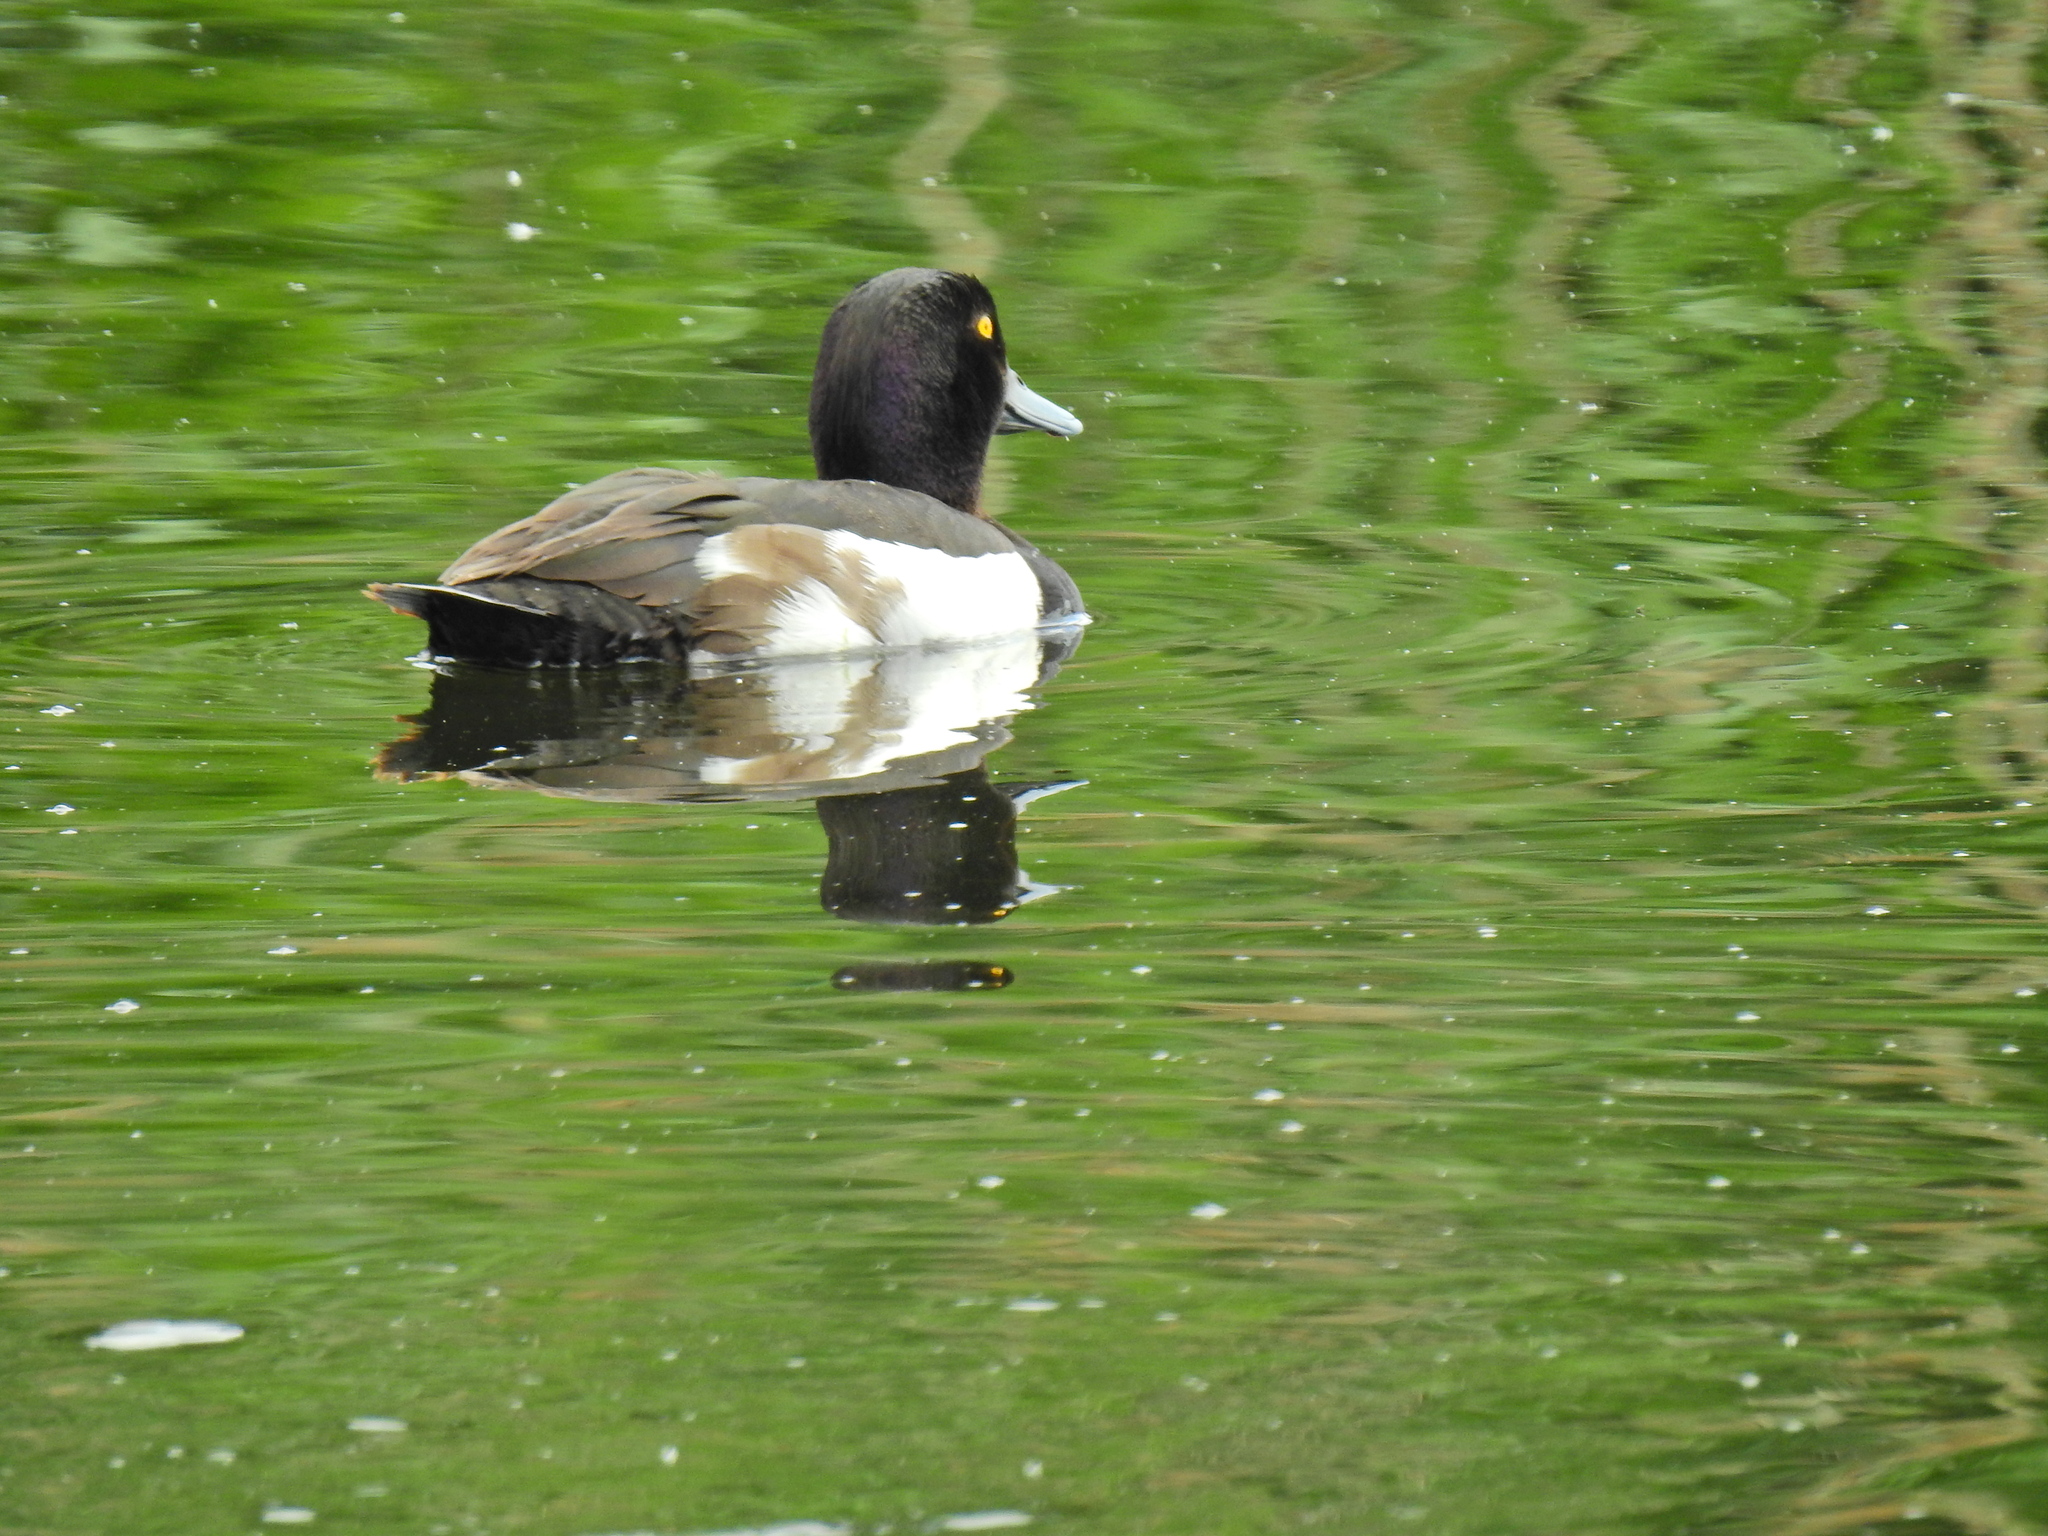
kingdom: Animalia
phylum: Chordata
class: Aves
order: Anseriformes
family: Anatidae
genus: Aythya
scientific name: Aythya fuligula
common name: Tufted duck
